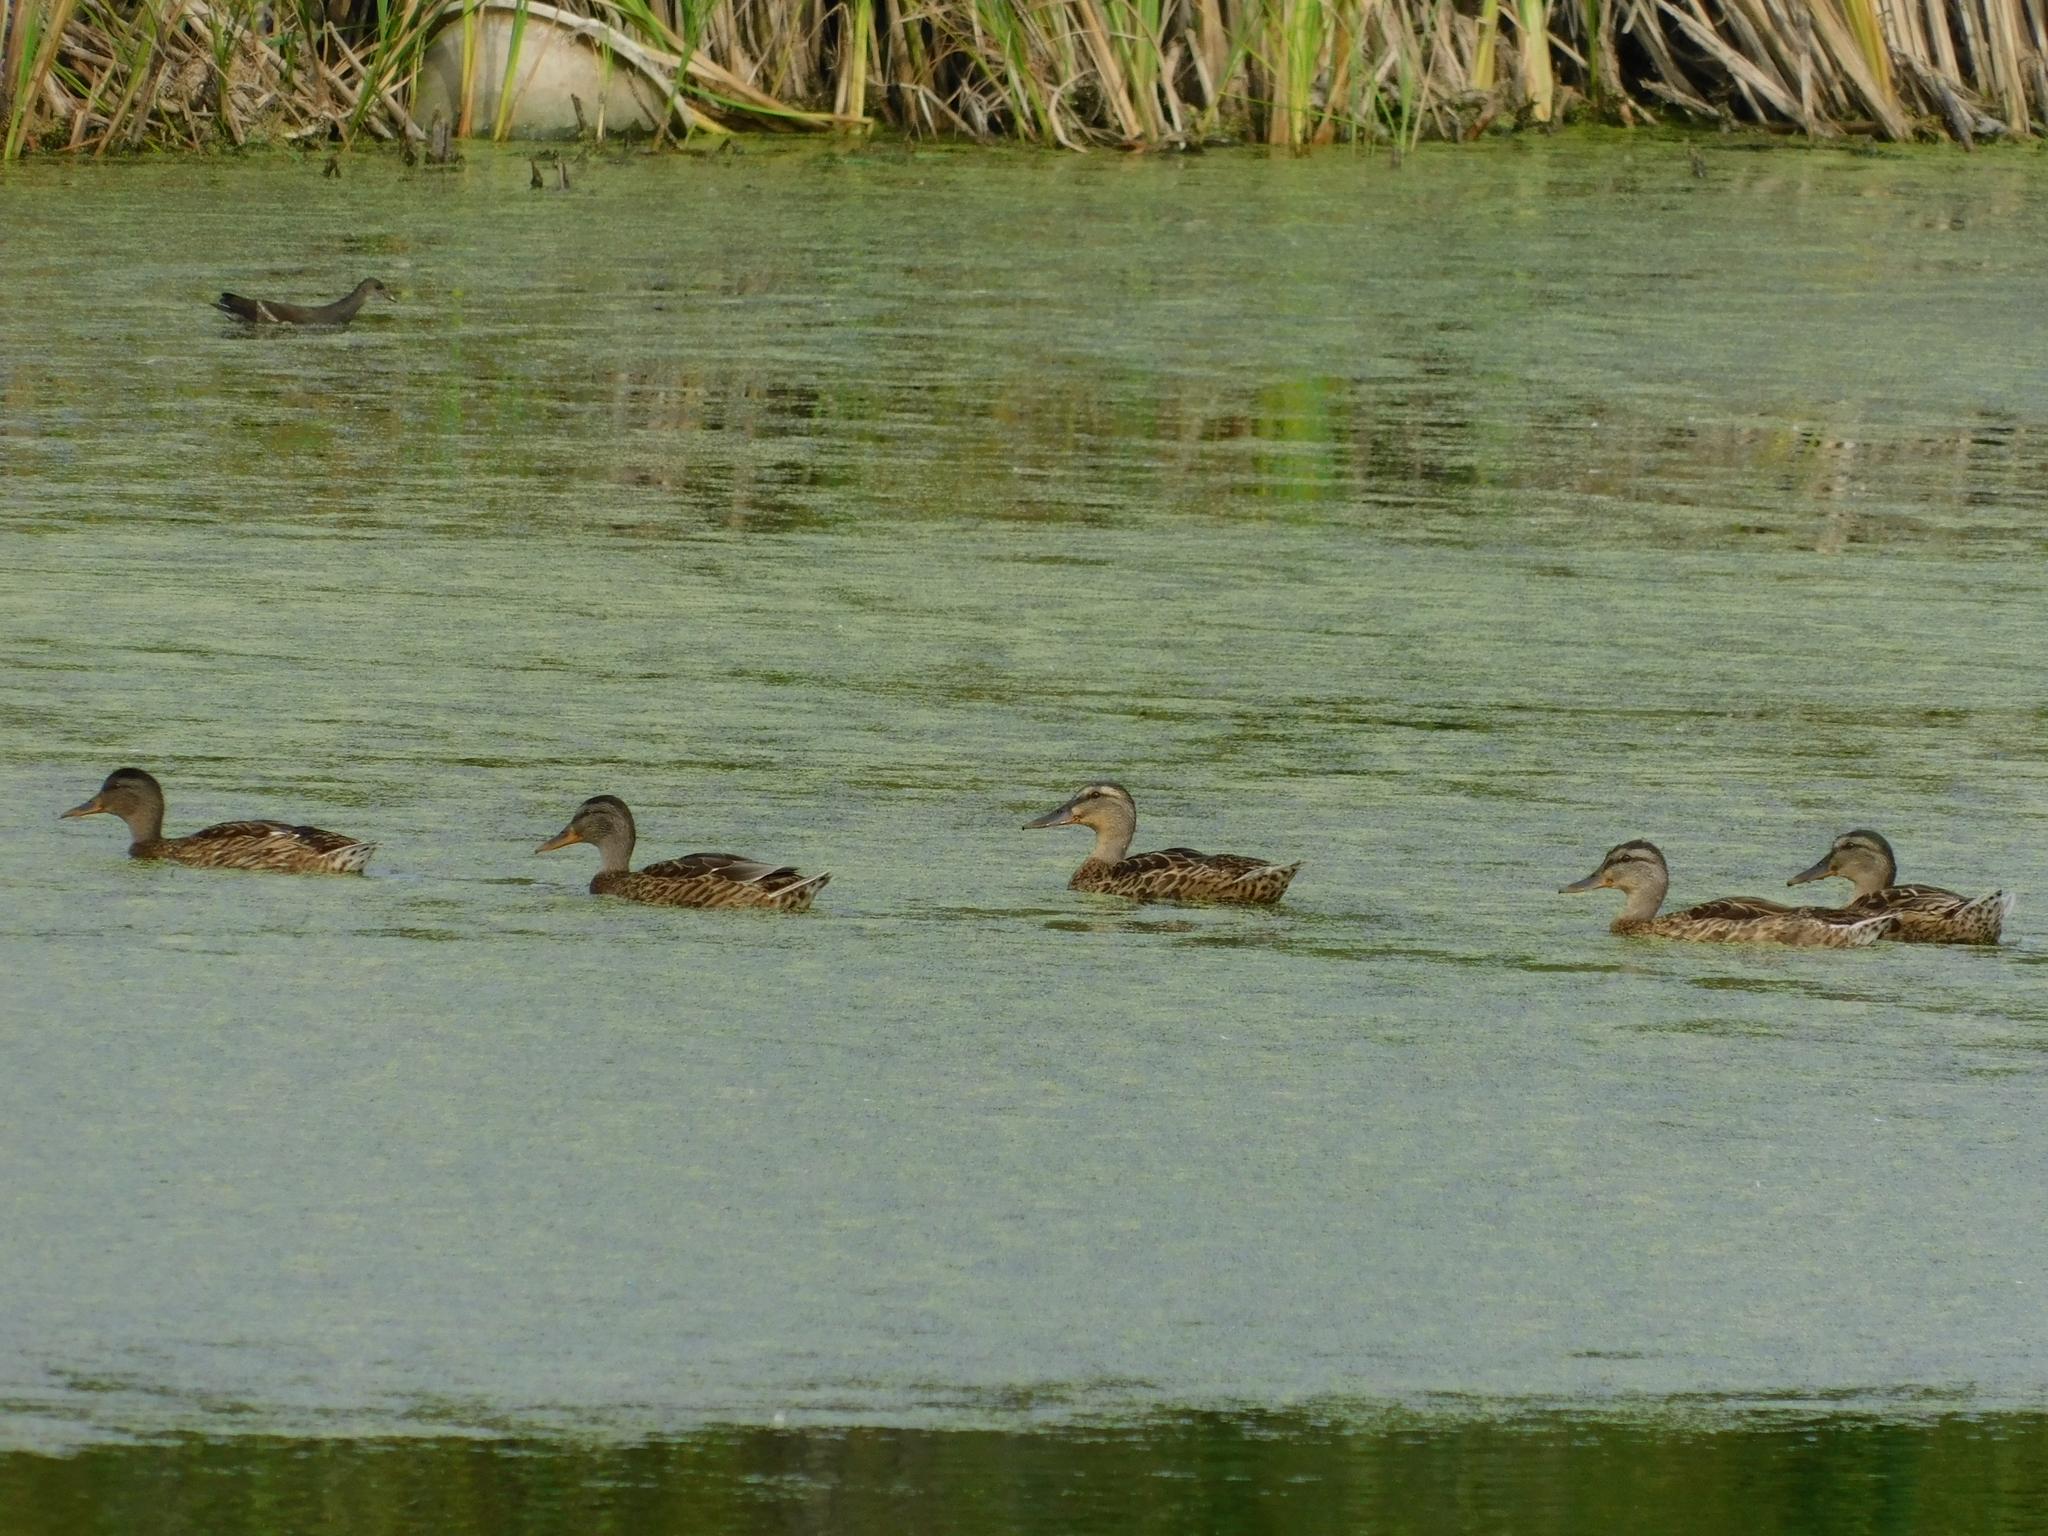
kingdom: Animalia
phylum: Chordata
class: Aves
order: Gruiformes
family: Rallidae
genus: Gallinula
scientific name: Gallinula chloropus
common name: Common moorhen
